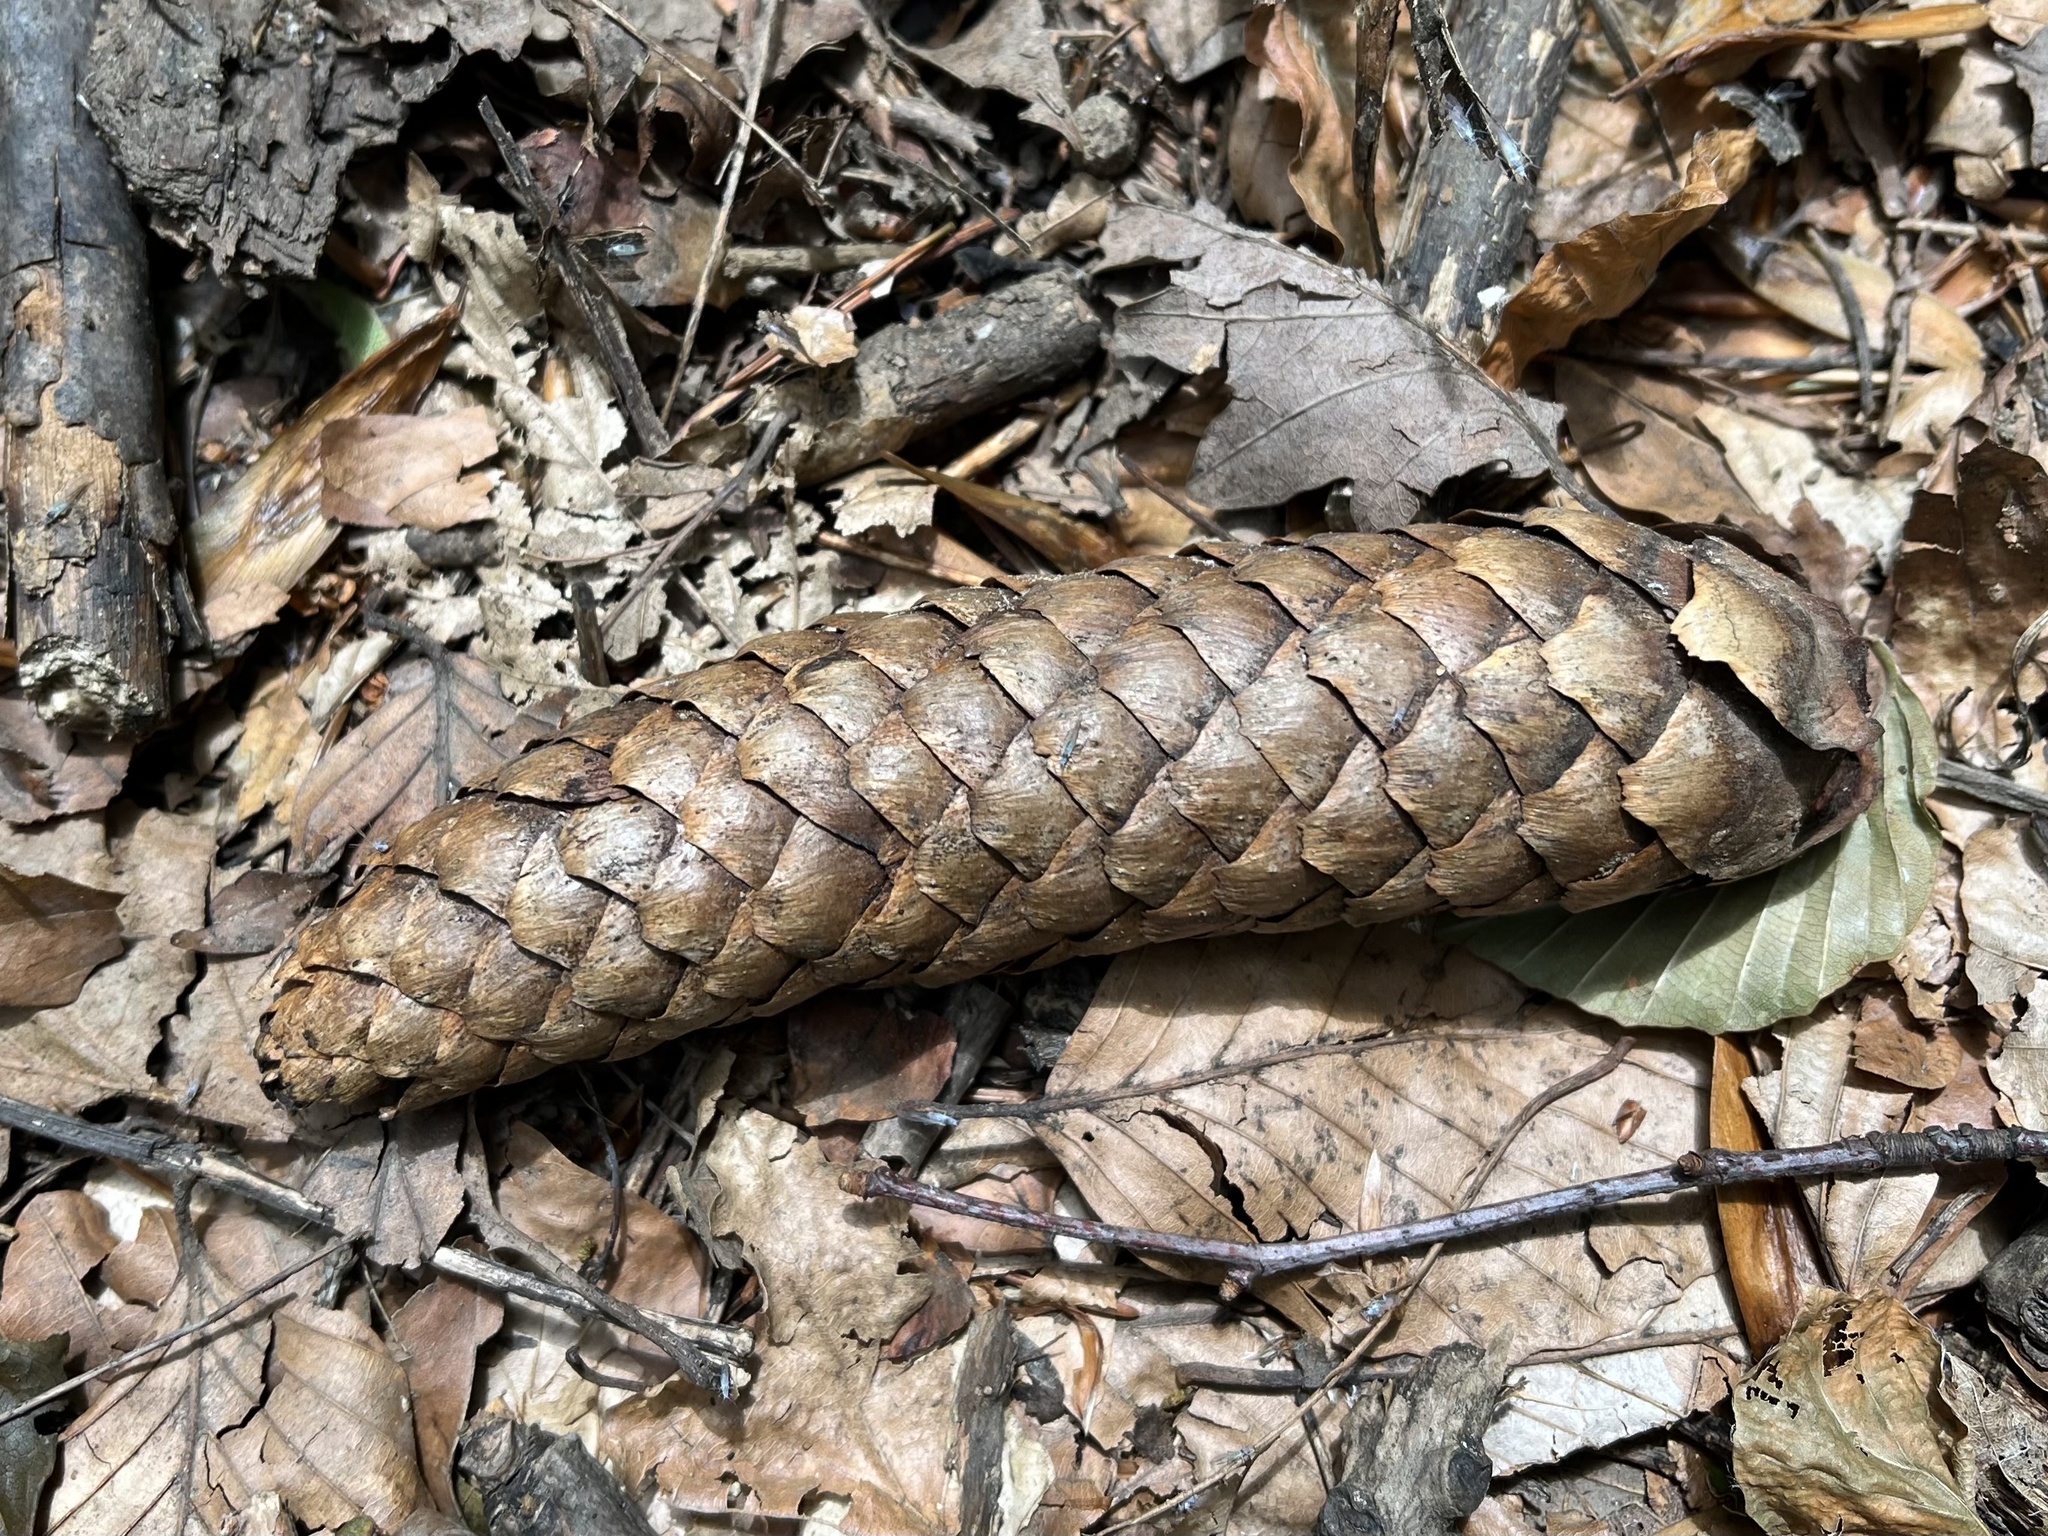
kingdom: Plantae
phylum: Tracheophyta
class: Pinopsida
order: Pinales
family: Pinaceae
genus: Picea
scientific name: Picea abies
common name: Norway spruce
